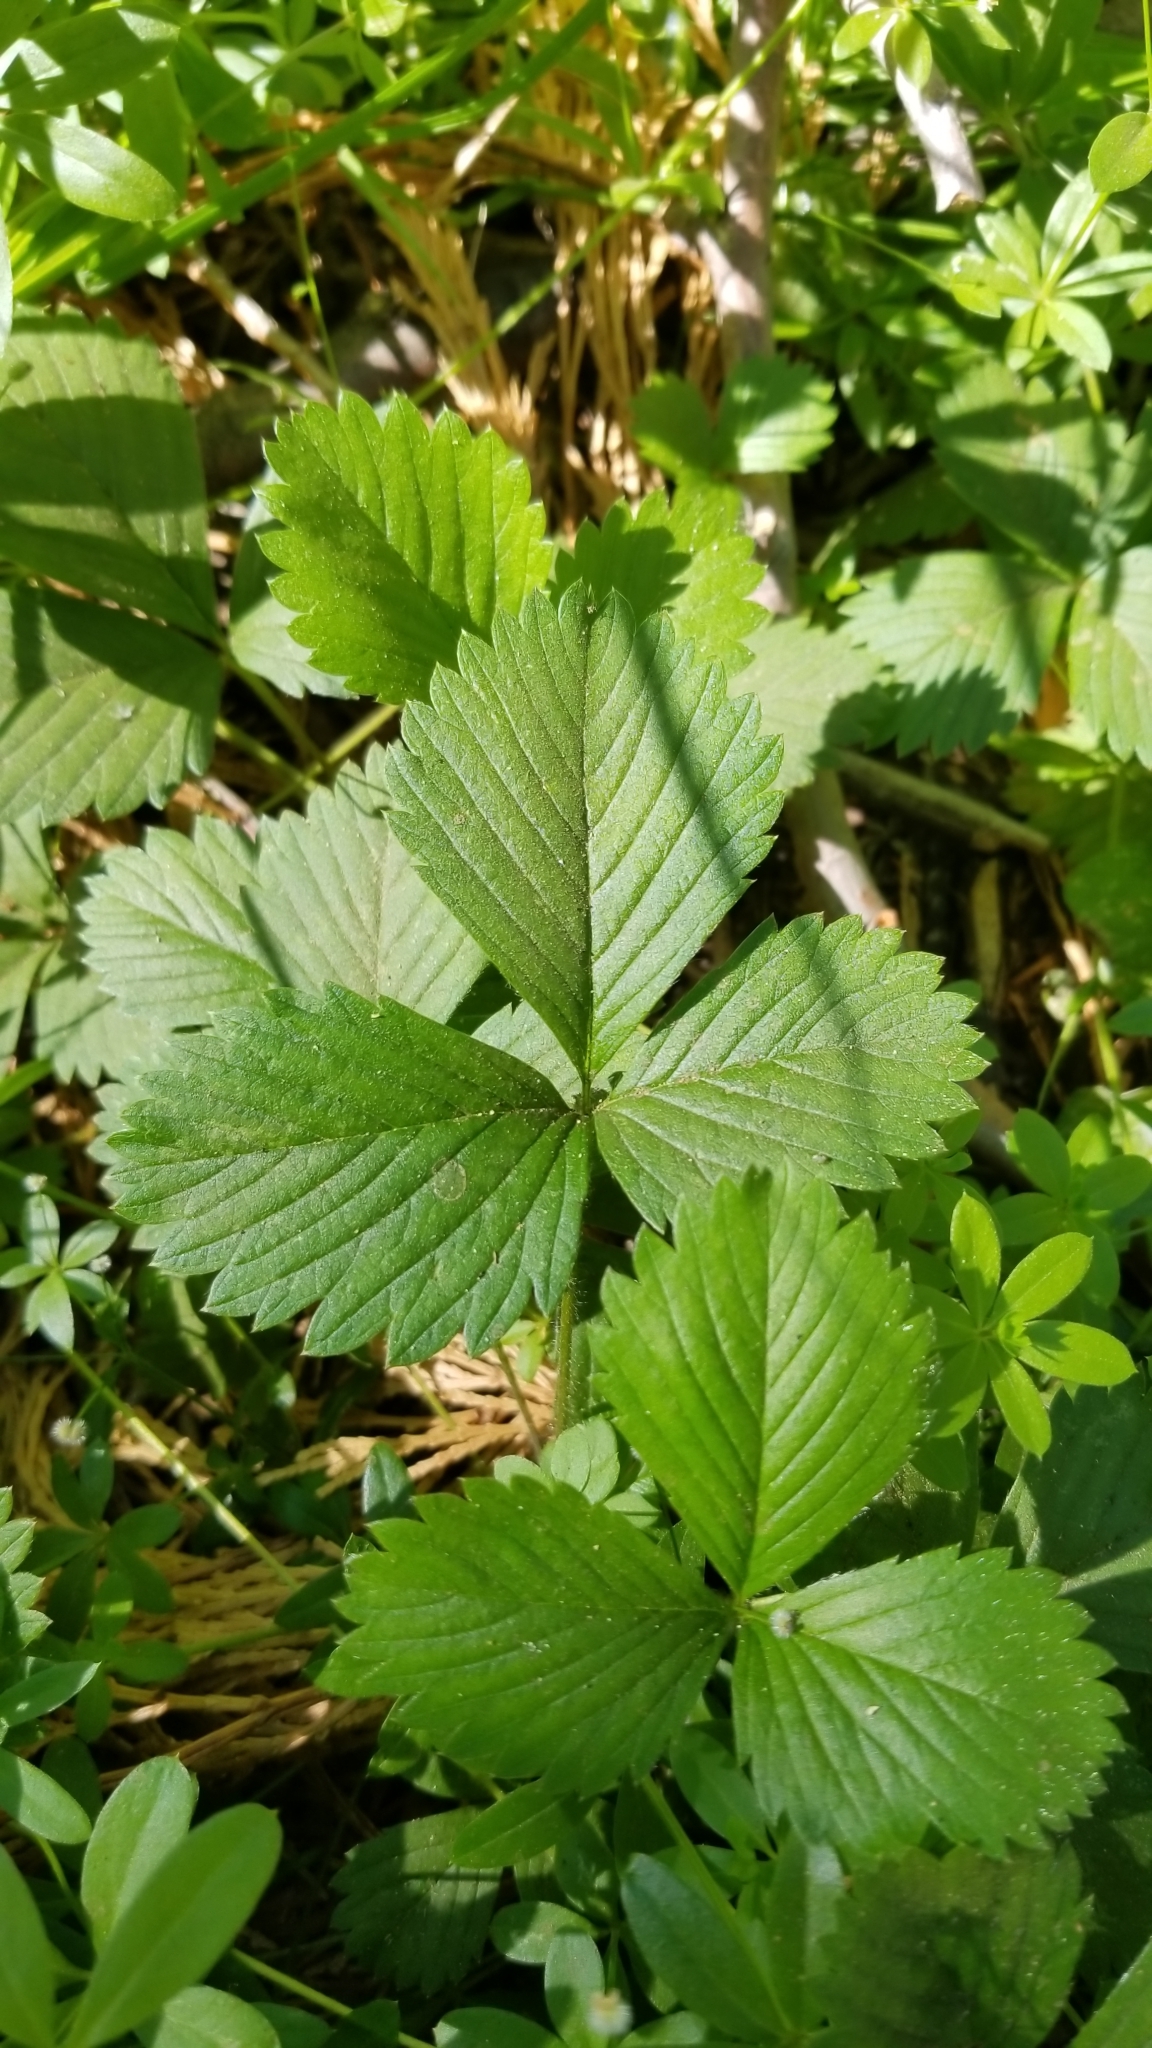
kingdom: Plantae
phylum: Tracheophyta
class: Magnoliopsida
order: Rosales
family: Rosaceae
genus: Fragaria
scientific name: Fragaria vesca
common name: Wild strawberry
